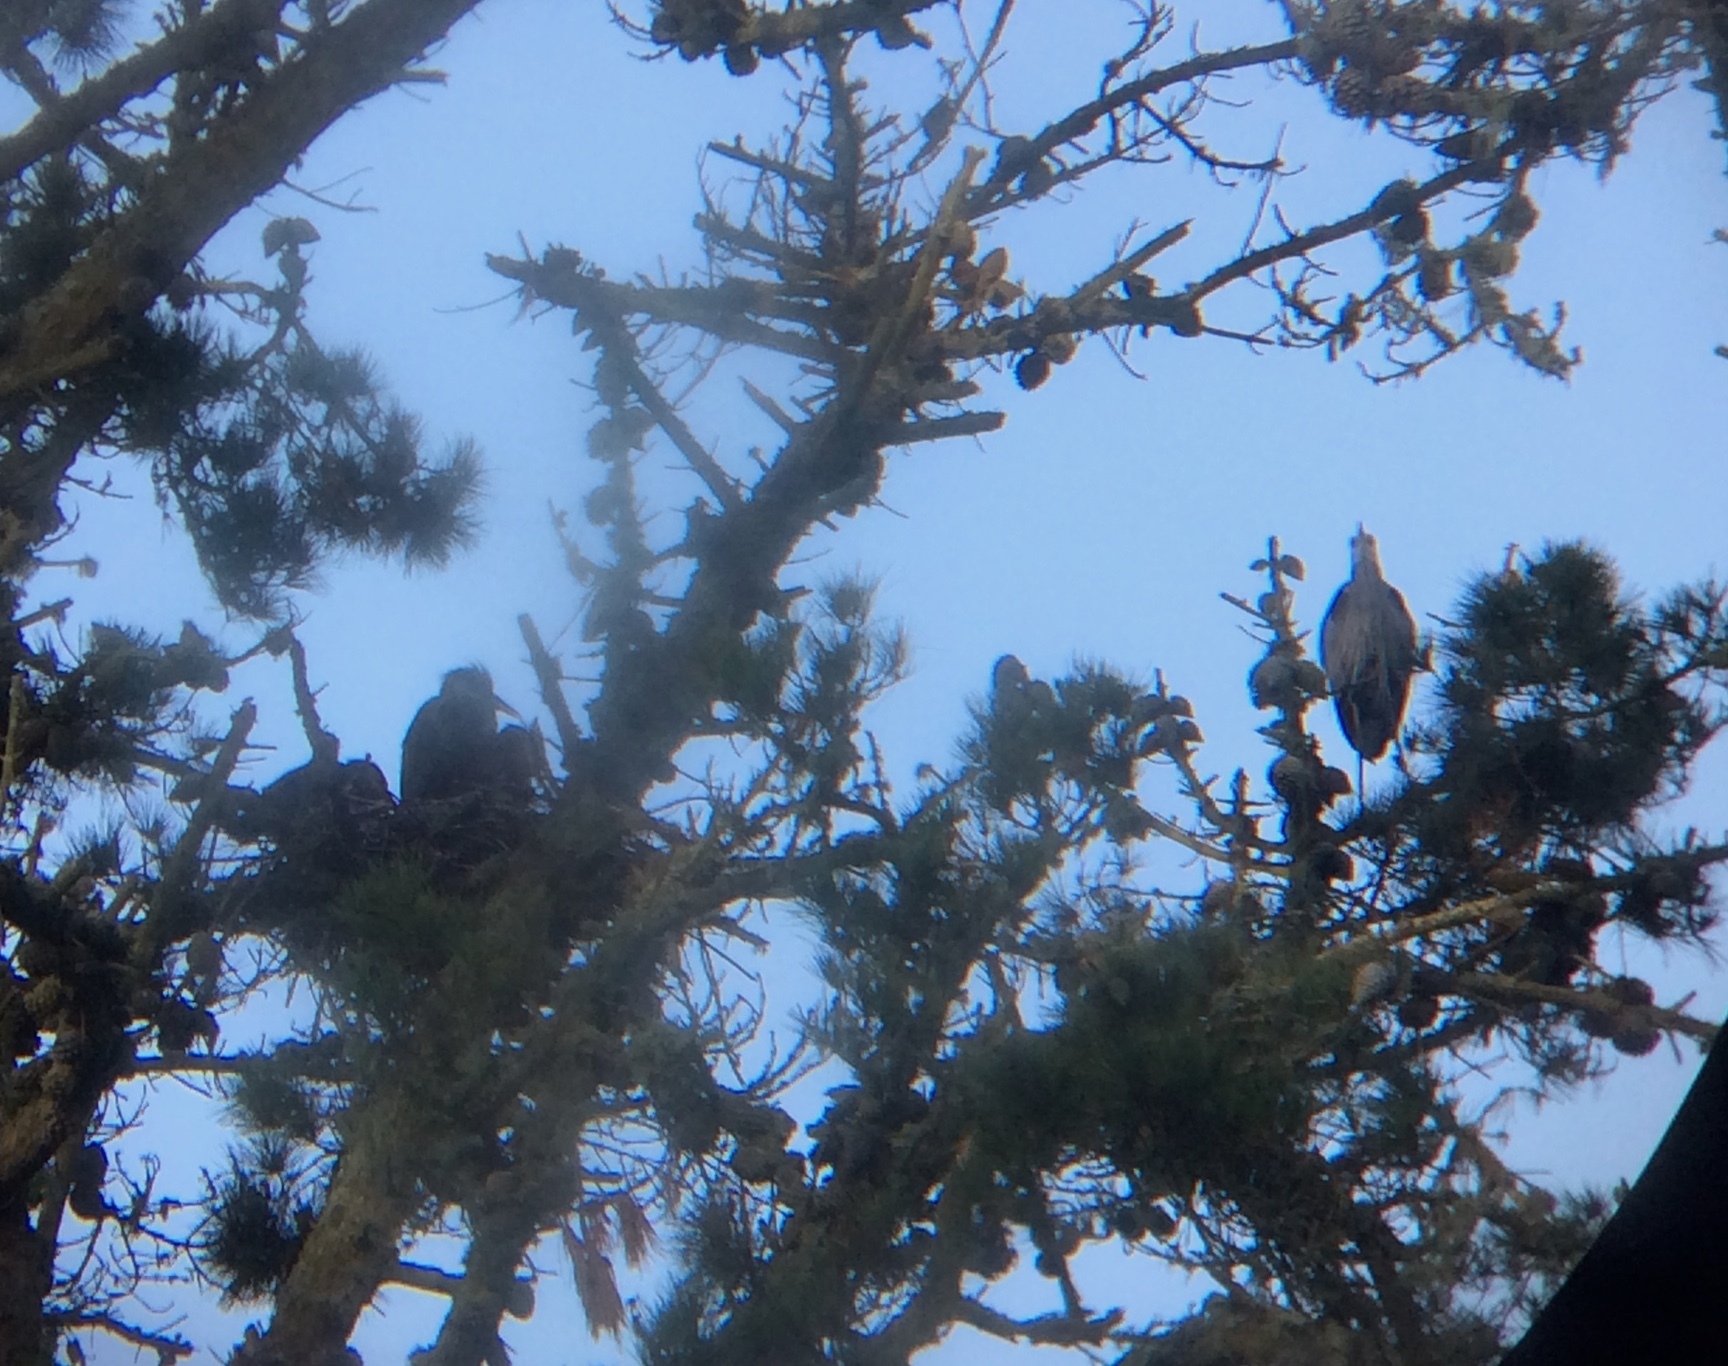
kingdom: Animalia
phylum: Chordata
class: Aves
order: Pelecaniformes
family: Ardeidae
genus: Ardea
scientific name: Ardea herodias
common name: Great blue heron
